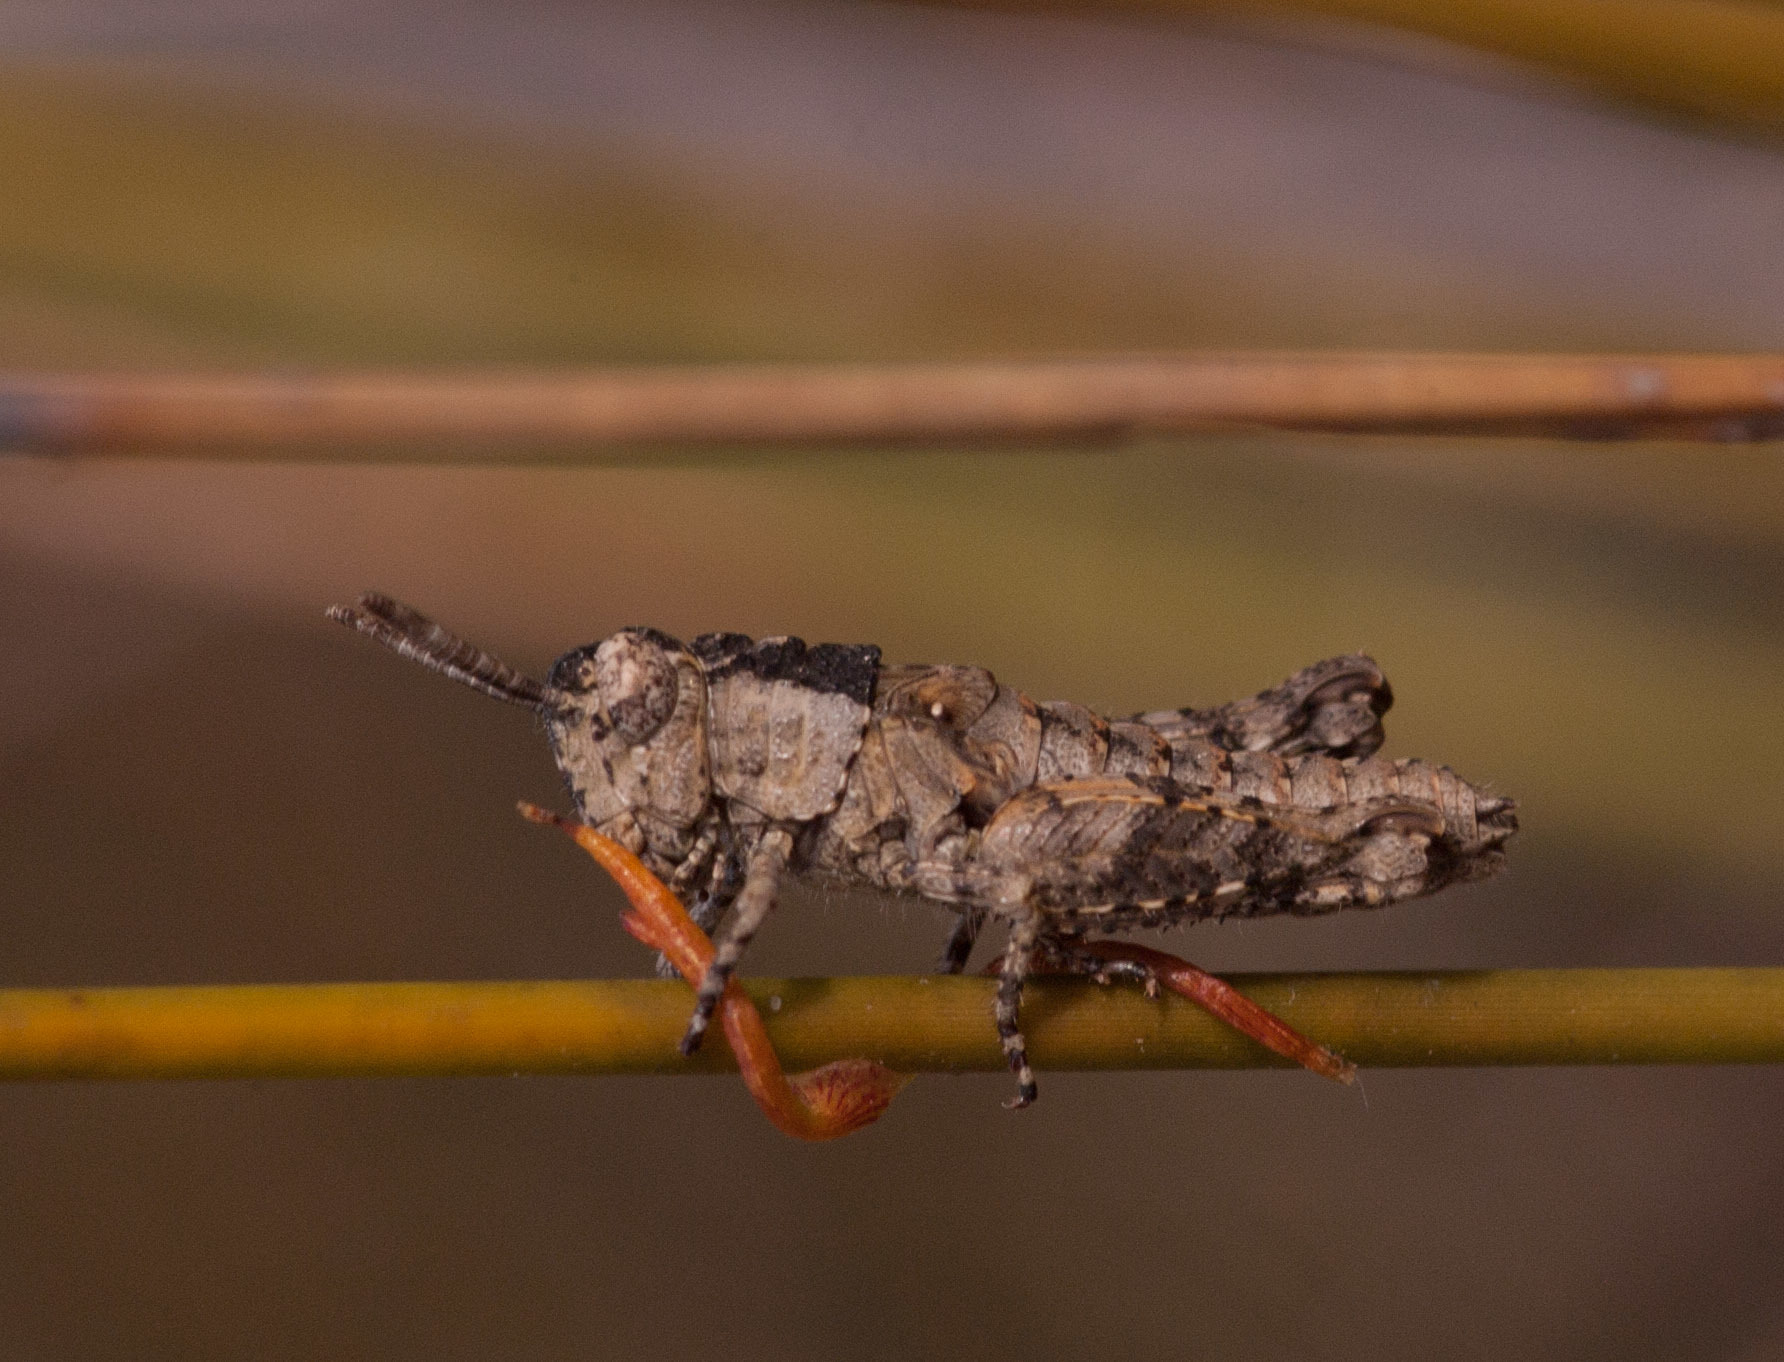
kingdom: Animalia
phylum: Arthropoda
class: Insecta
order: Orthoptera
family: Acrididae
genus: Cirphula
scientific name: Cirphula pyrrhocnemis
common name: Variable cirphula
